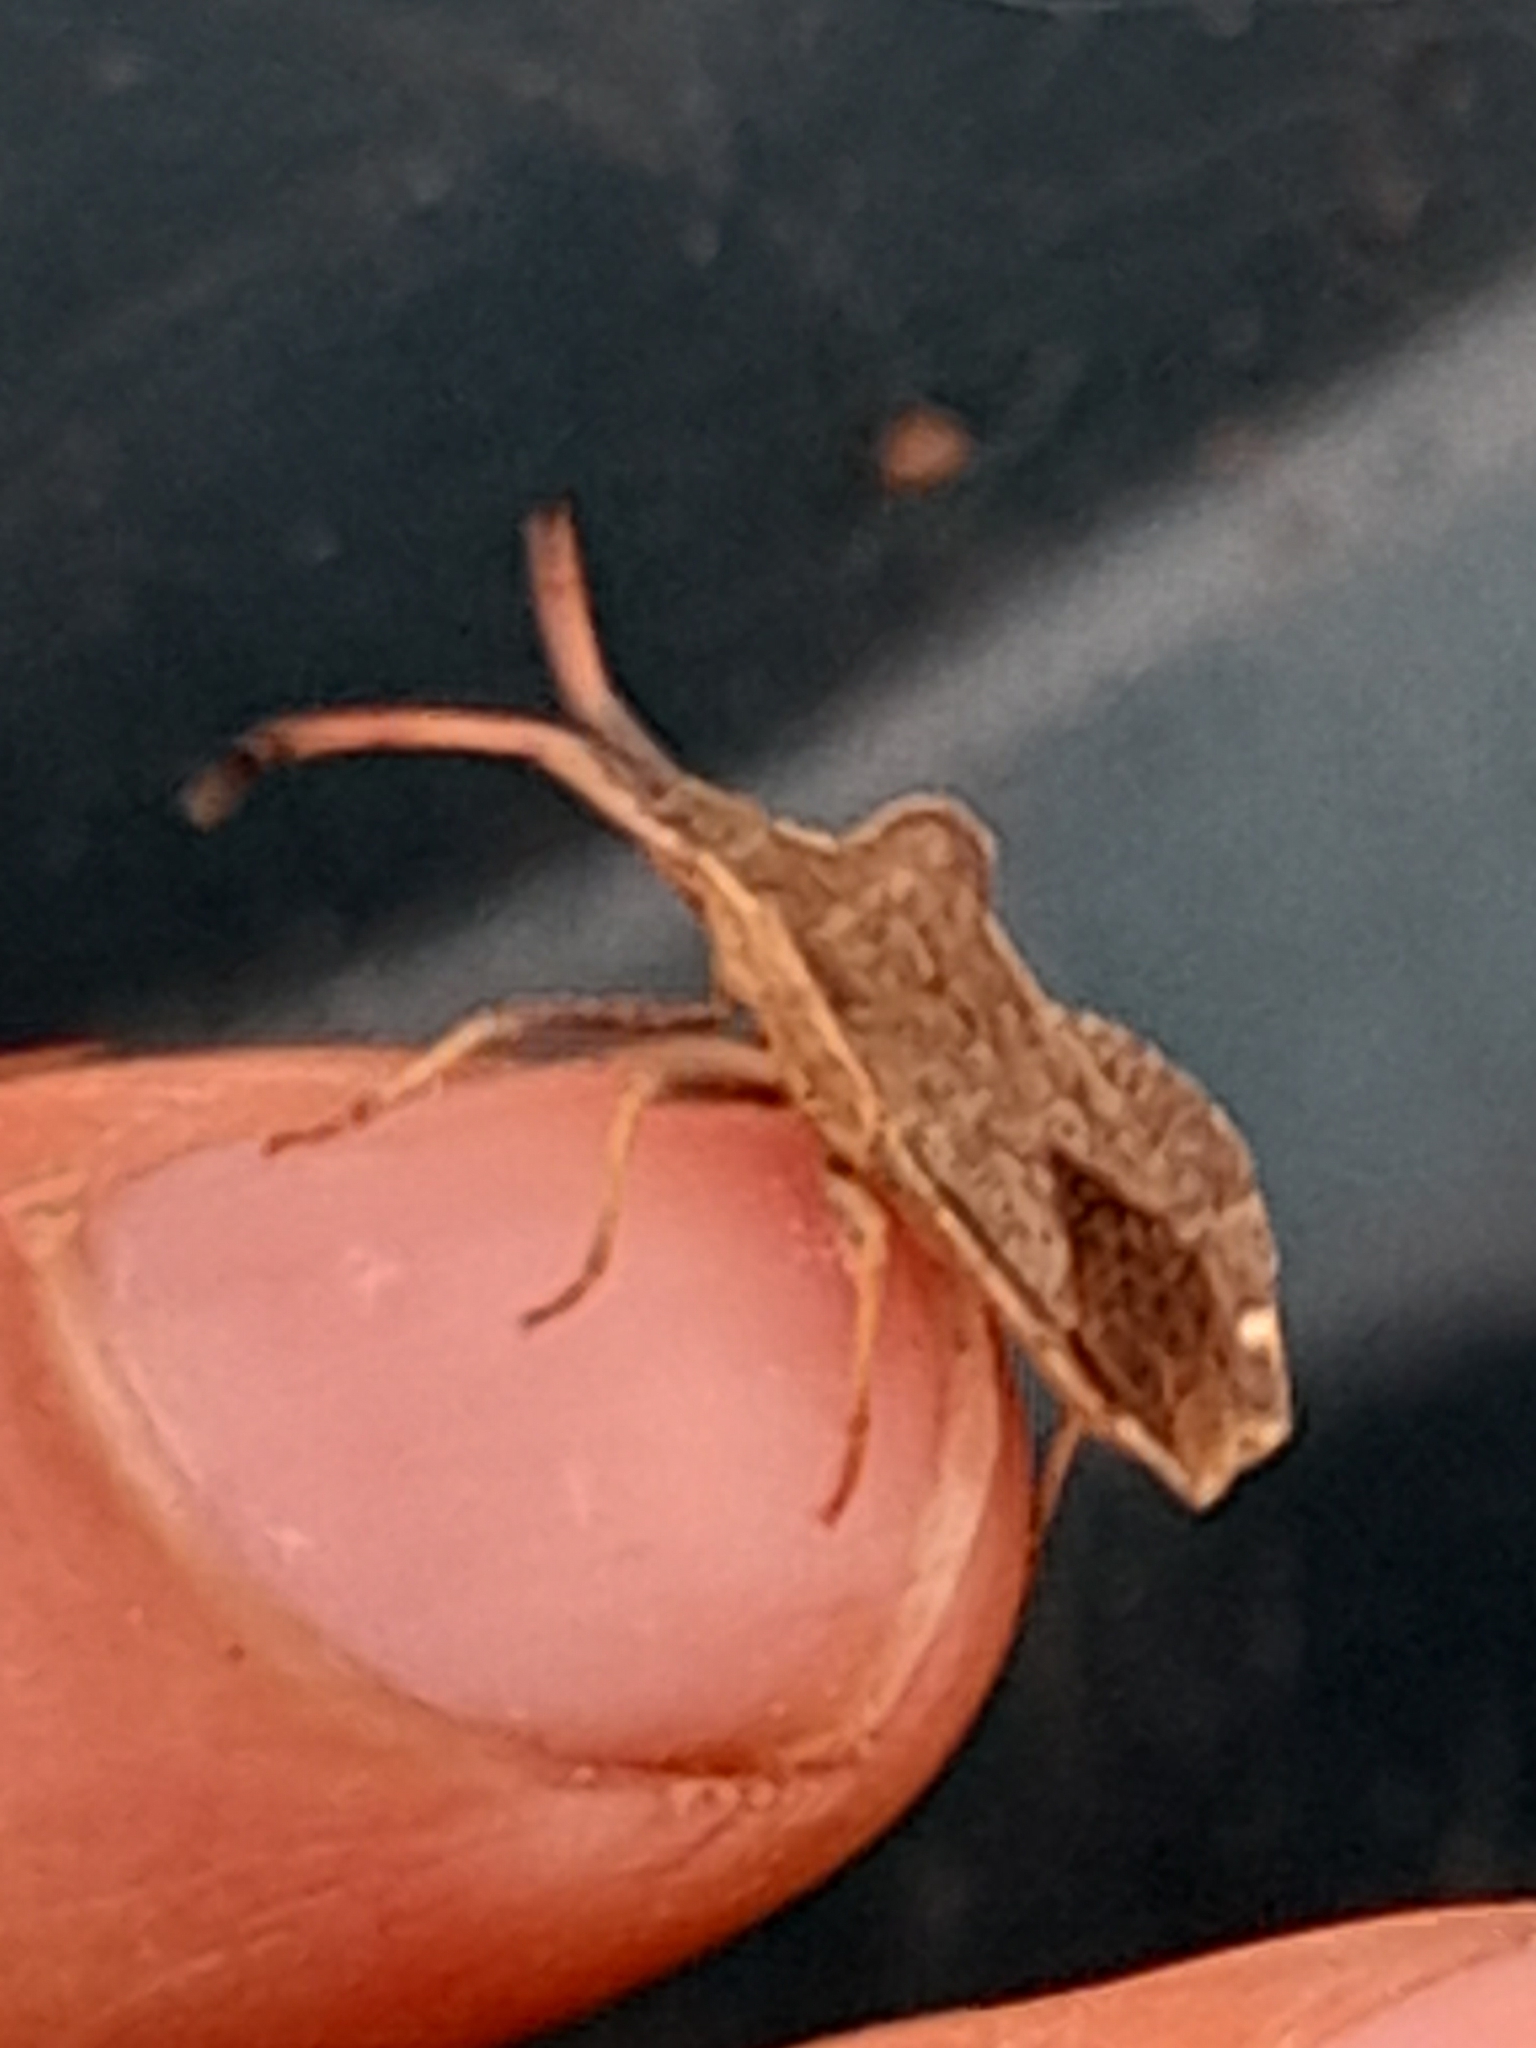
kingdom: Animalia
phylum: Arthropoda
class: Insecta
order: Hemiptera
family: Coreidae
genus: Enoplops
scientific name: Enoplops scapha
